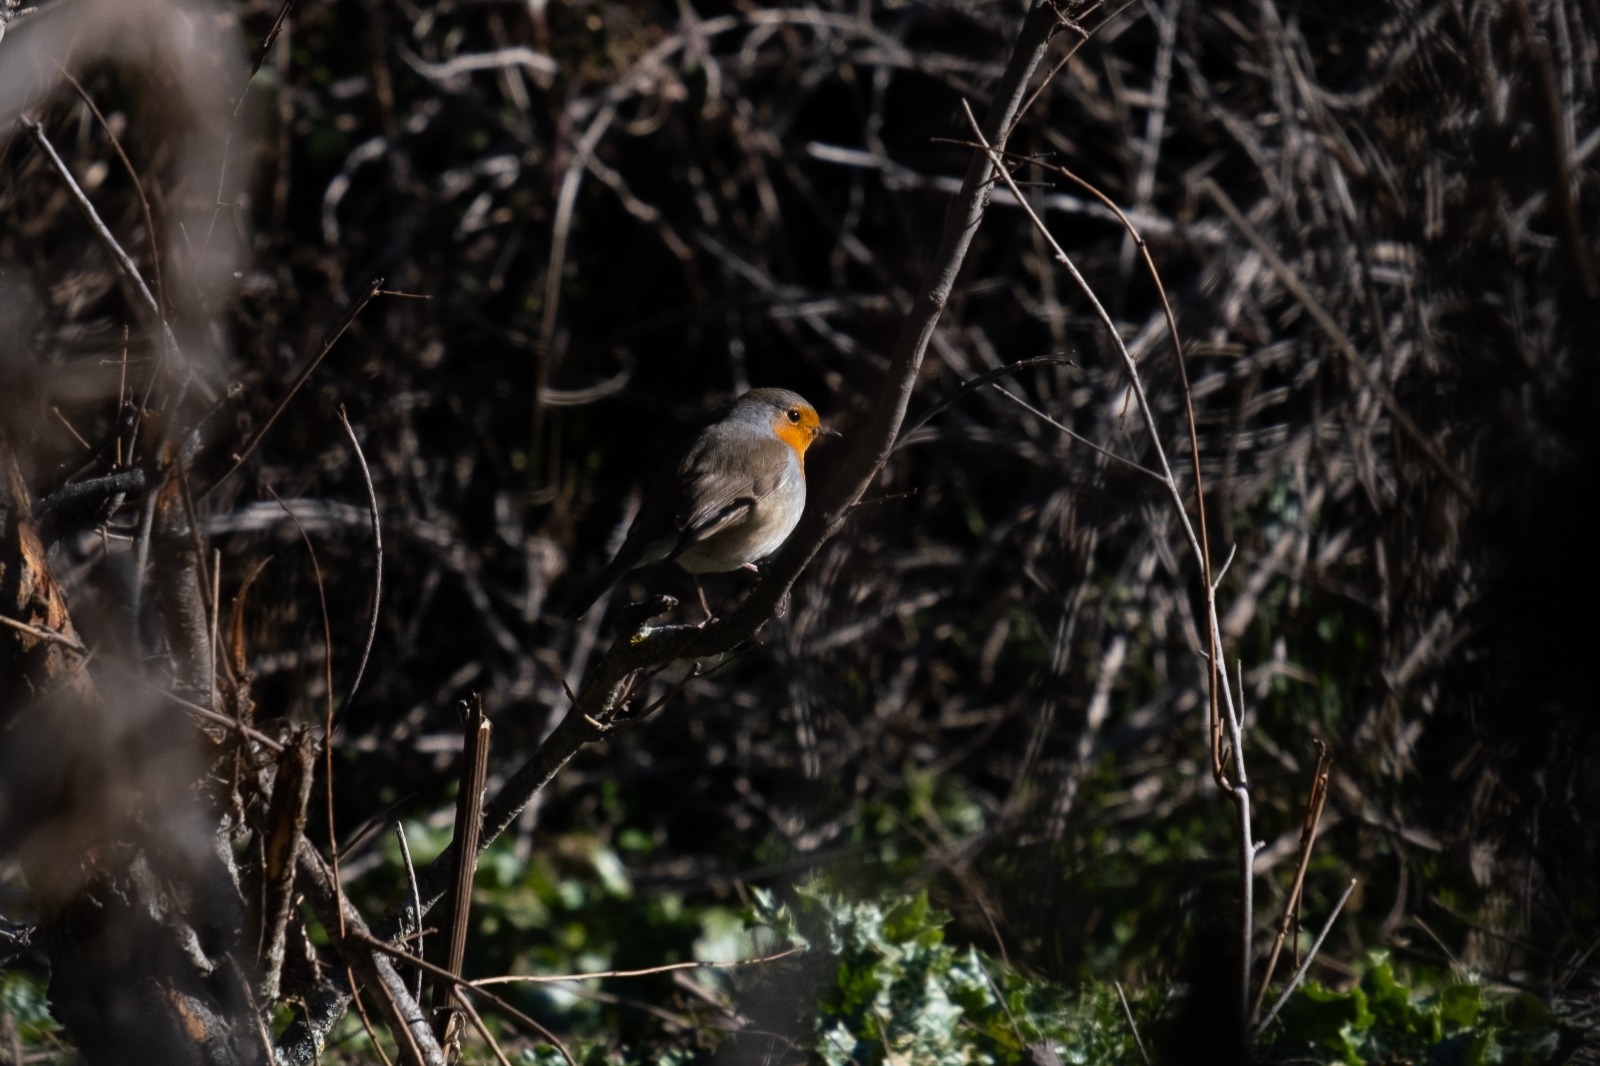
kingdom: Animalia
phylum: Chordata
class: Aves
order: Passeriformes
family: Muscicapidae
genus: Erithacus
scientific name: Erithacus rubecula
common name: European robin
